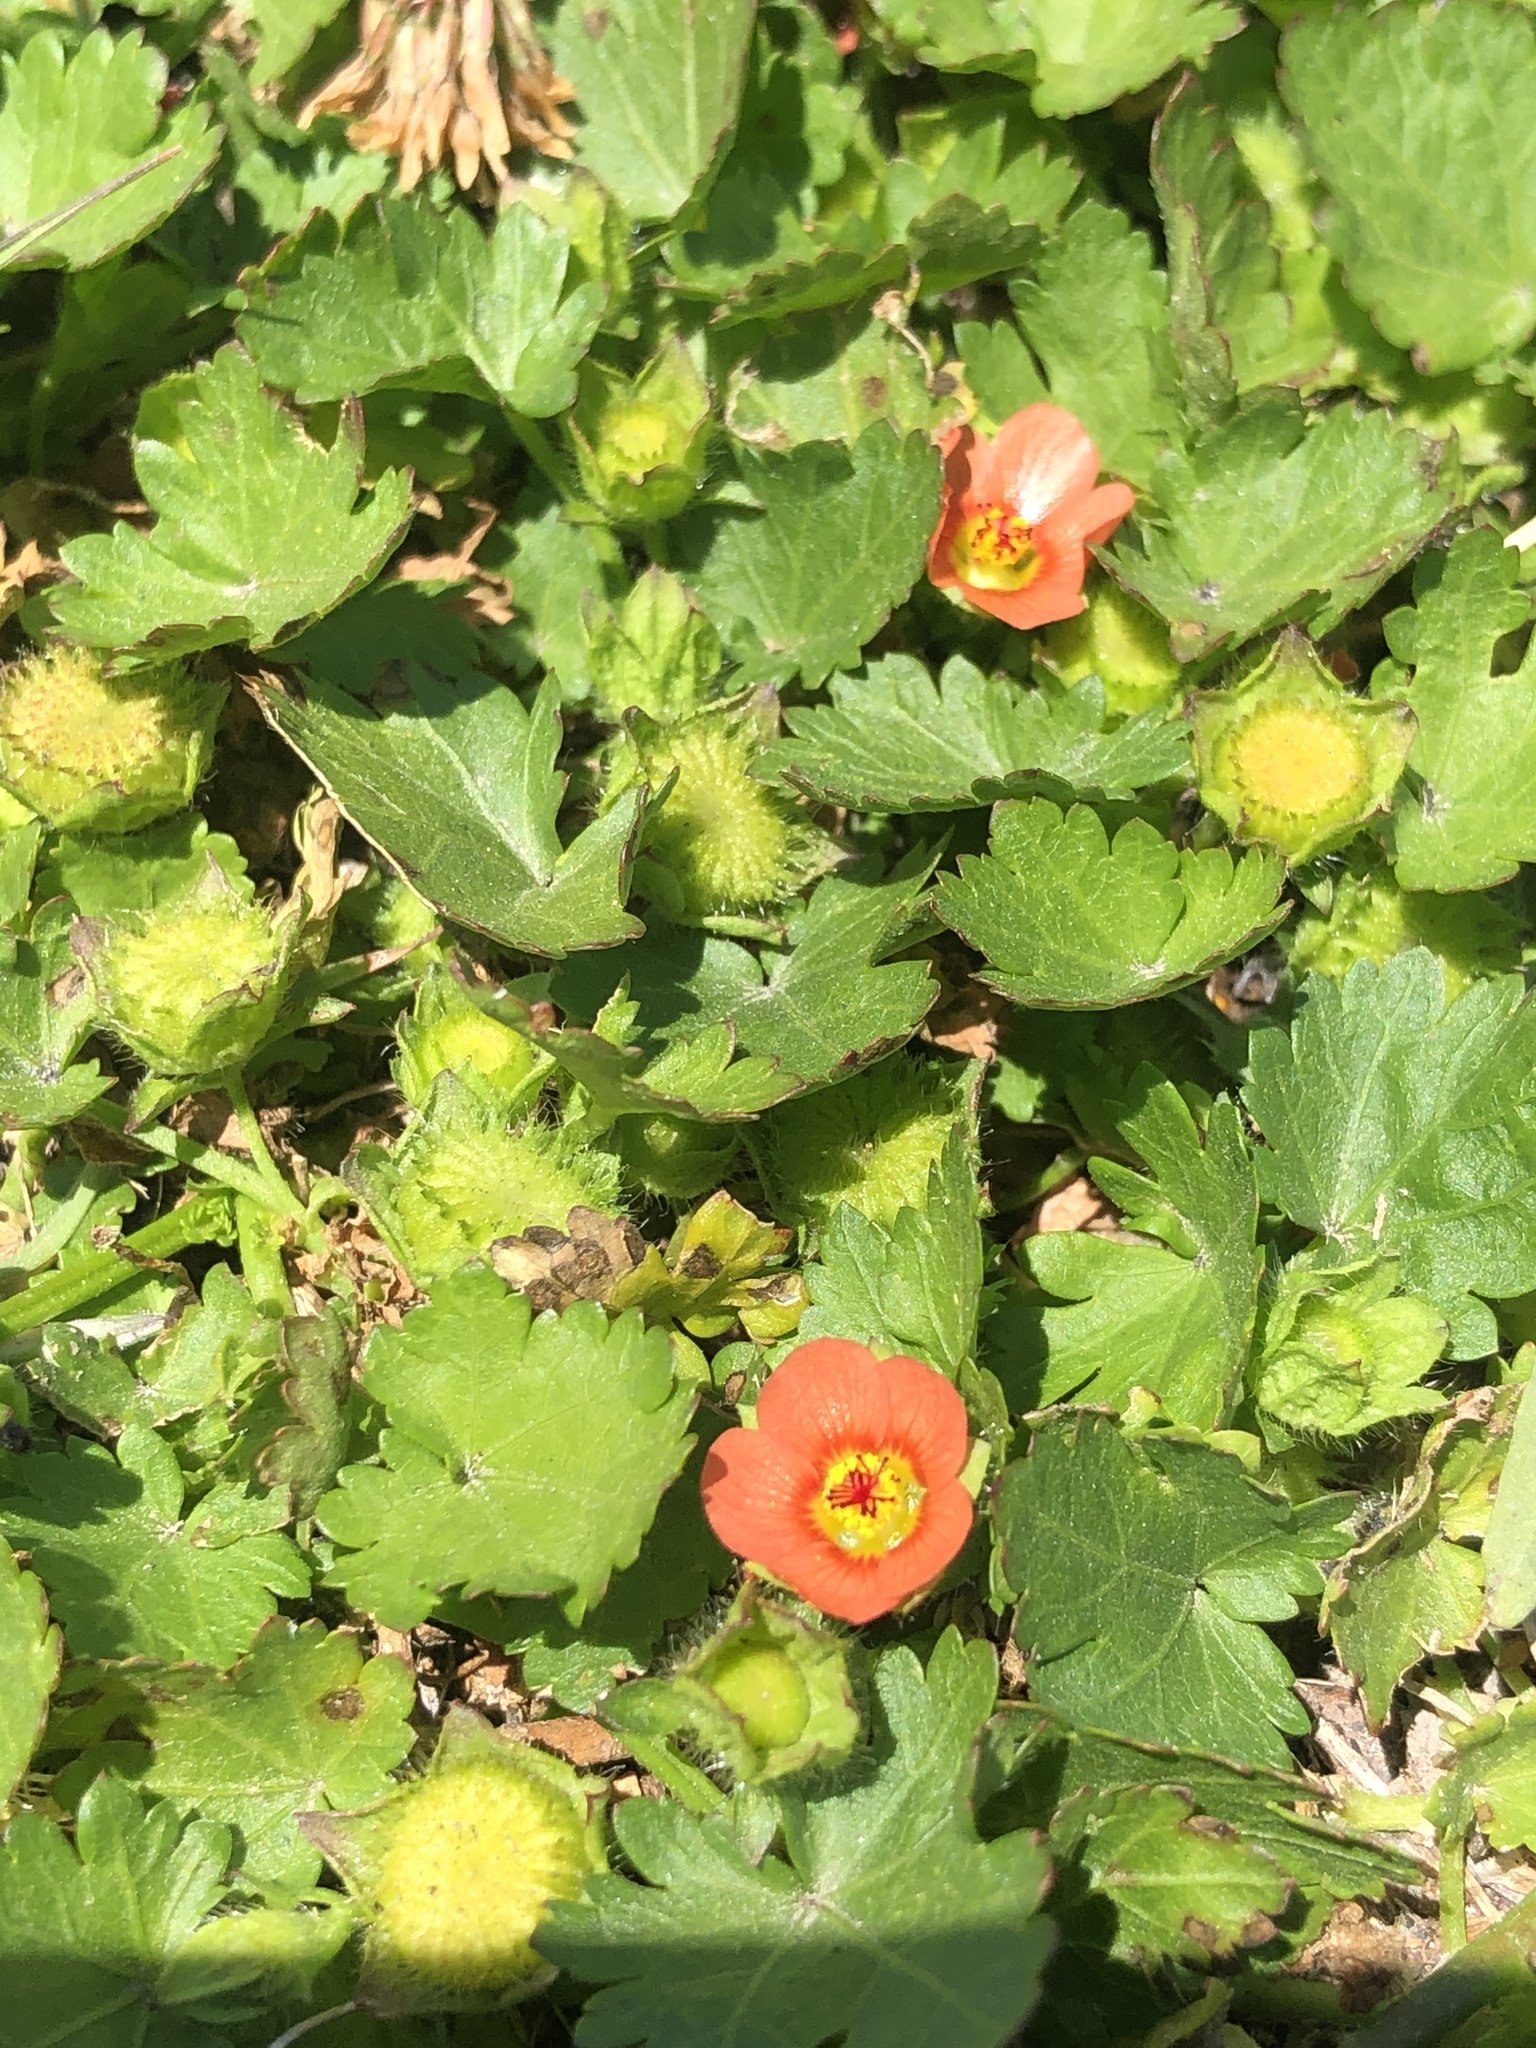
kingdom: Plantae
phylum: Tracheophyta
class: Magnoliopsida
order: Malvales
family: Malvaceae
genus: Modiola
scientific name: Modiola caroliniana
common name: Carolina bristlemallow
